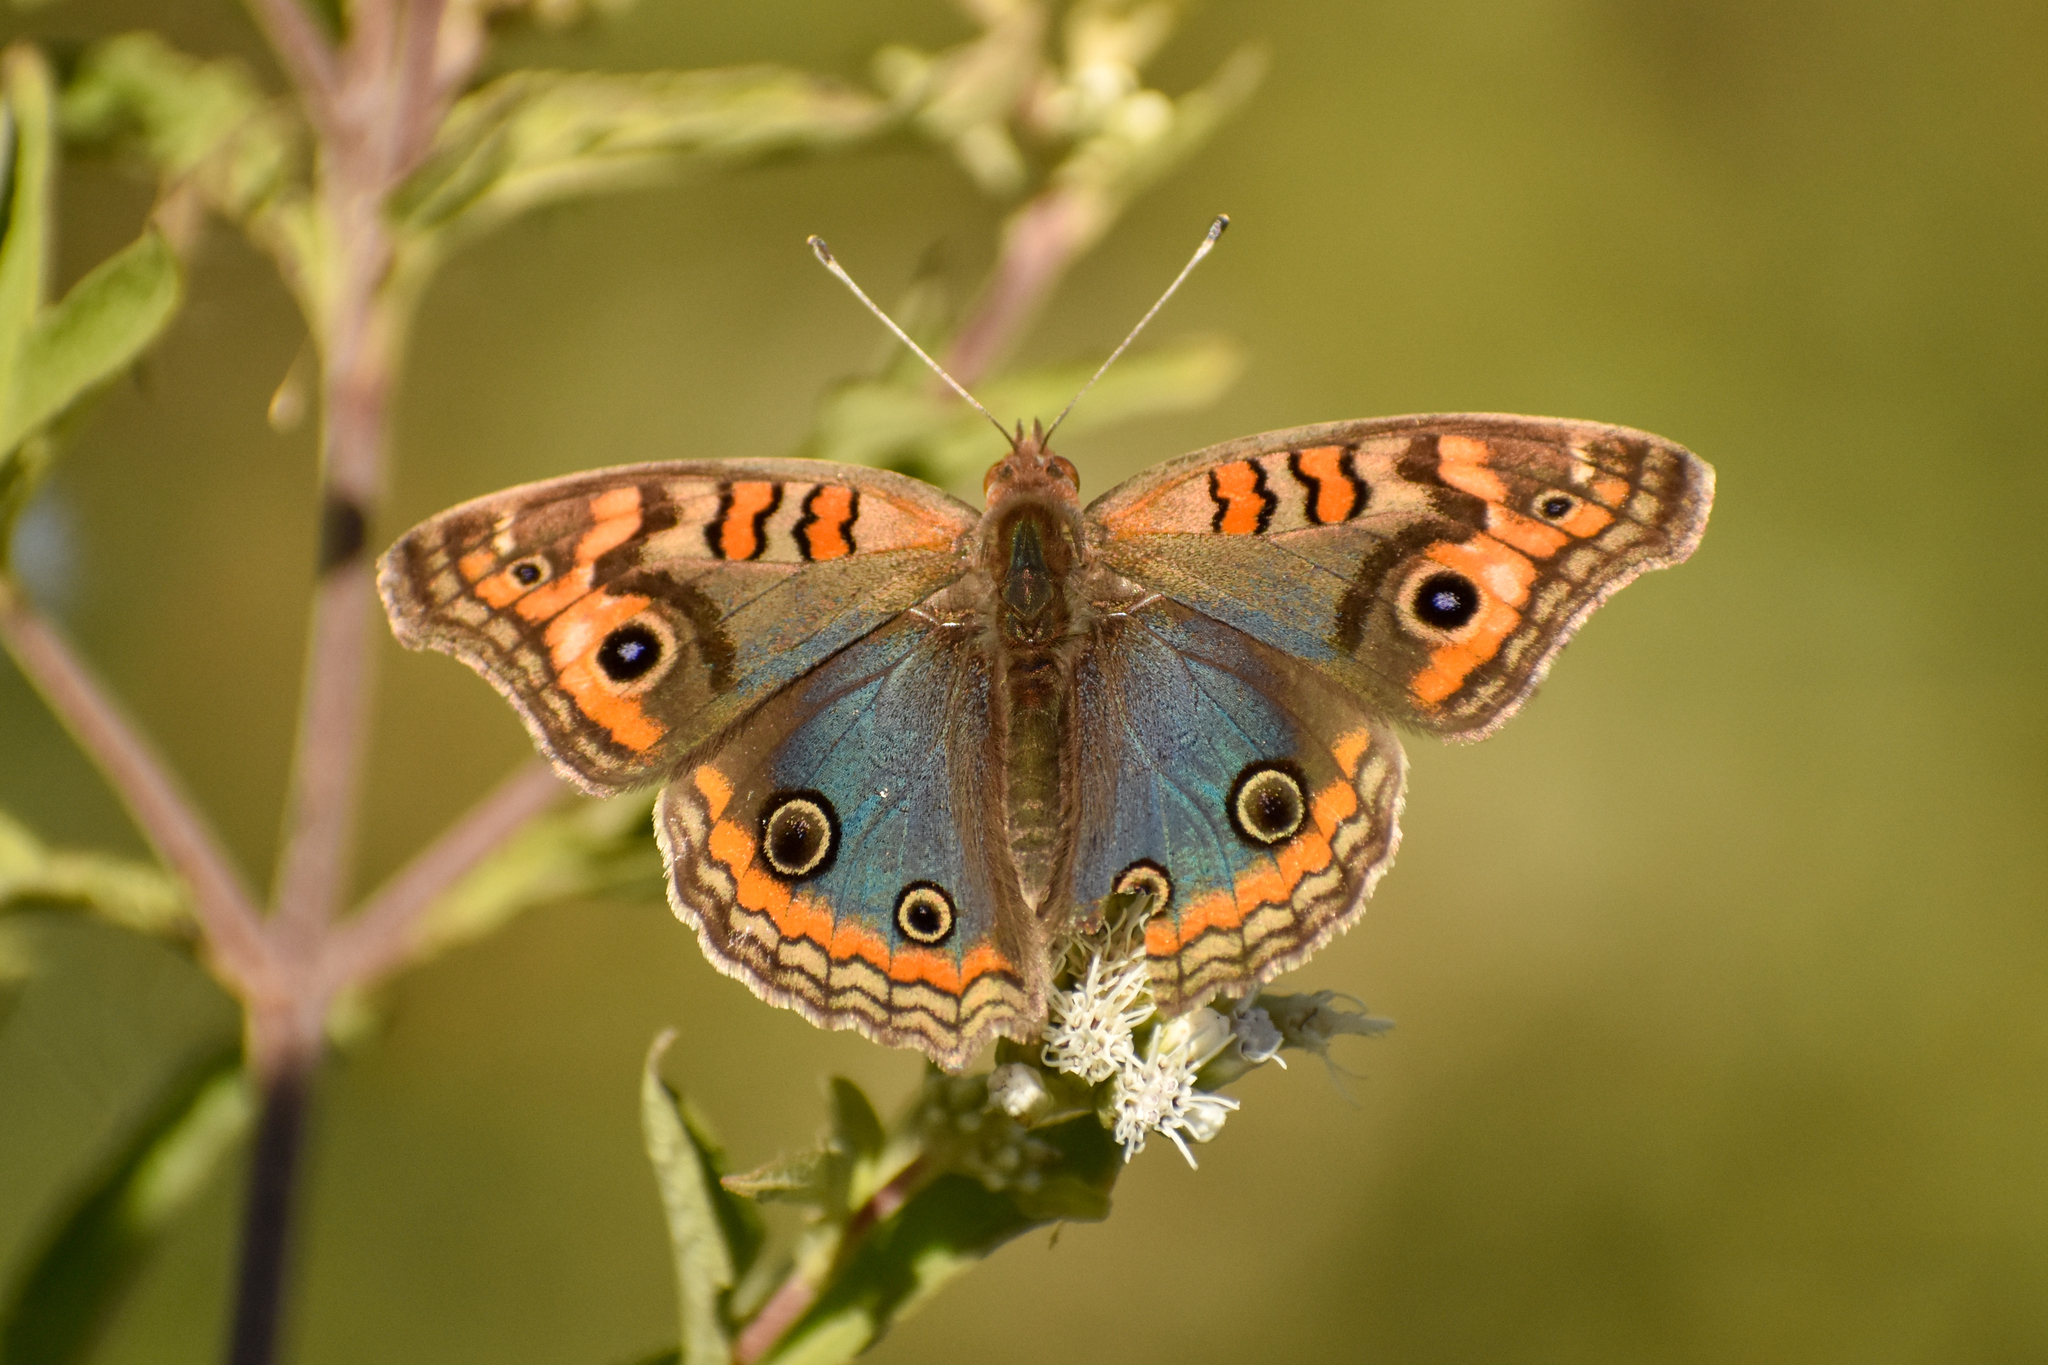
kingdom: Animalia
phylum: Arthropoda
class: Insecta
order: Lepidoptera
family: Nymphalidae
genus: Junonia
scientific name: Junonia lavinia
